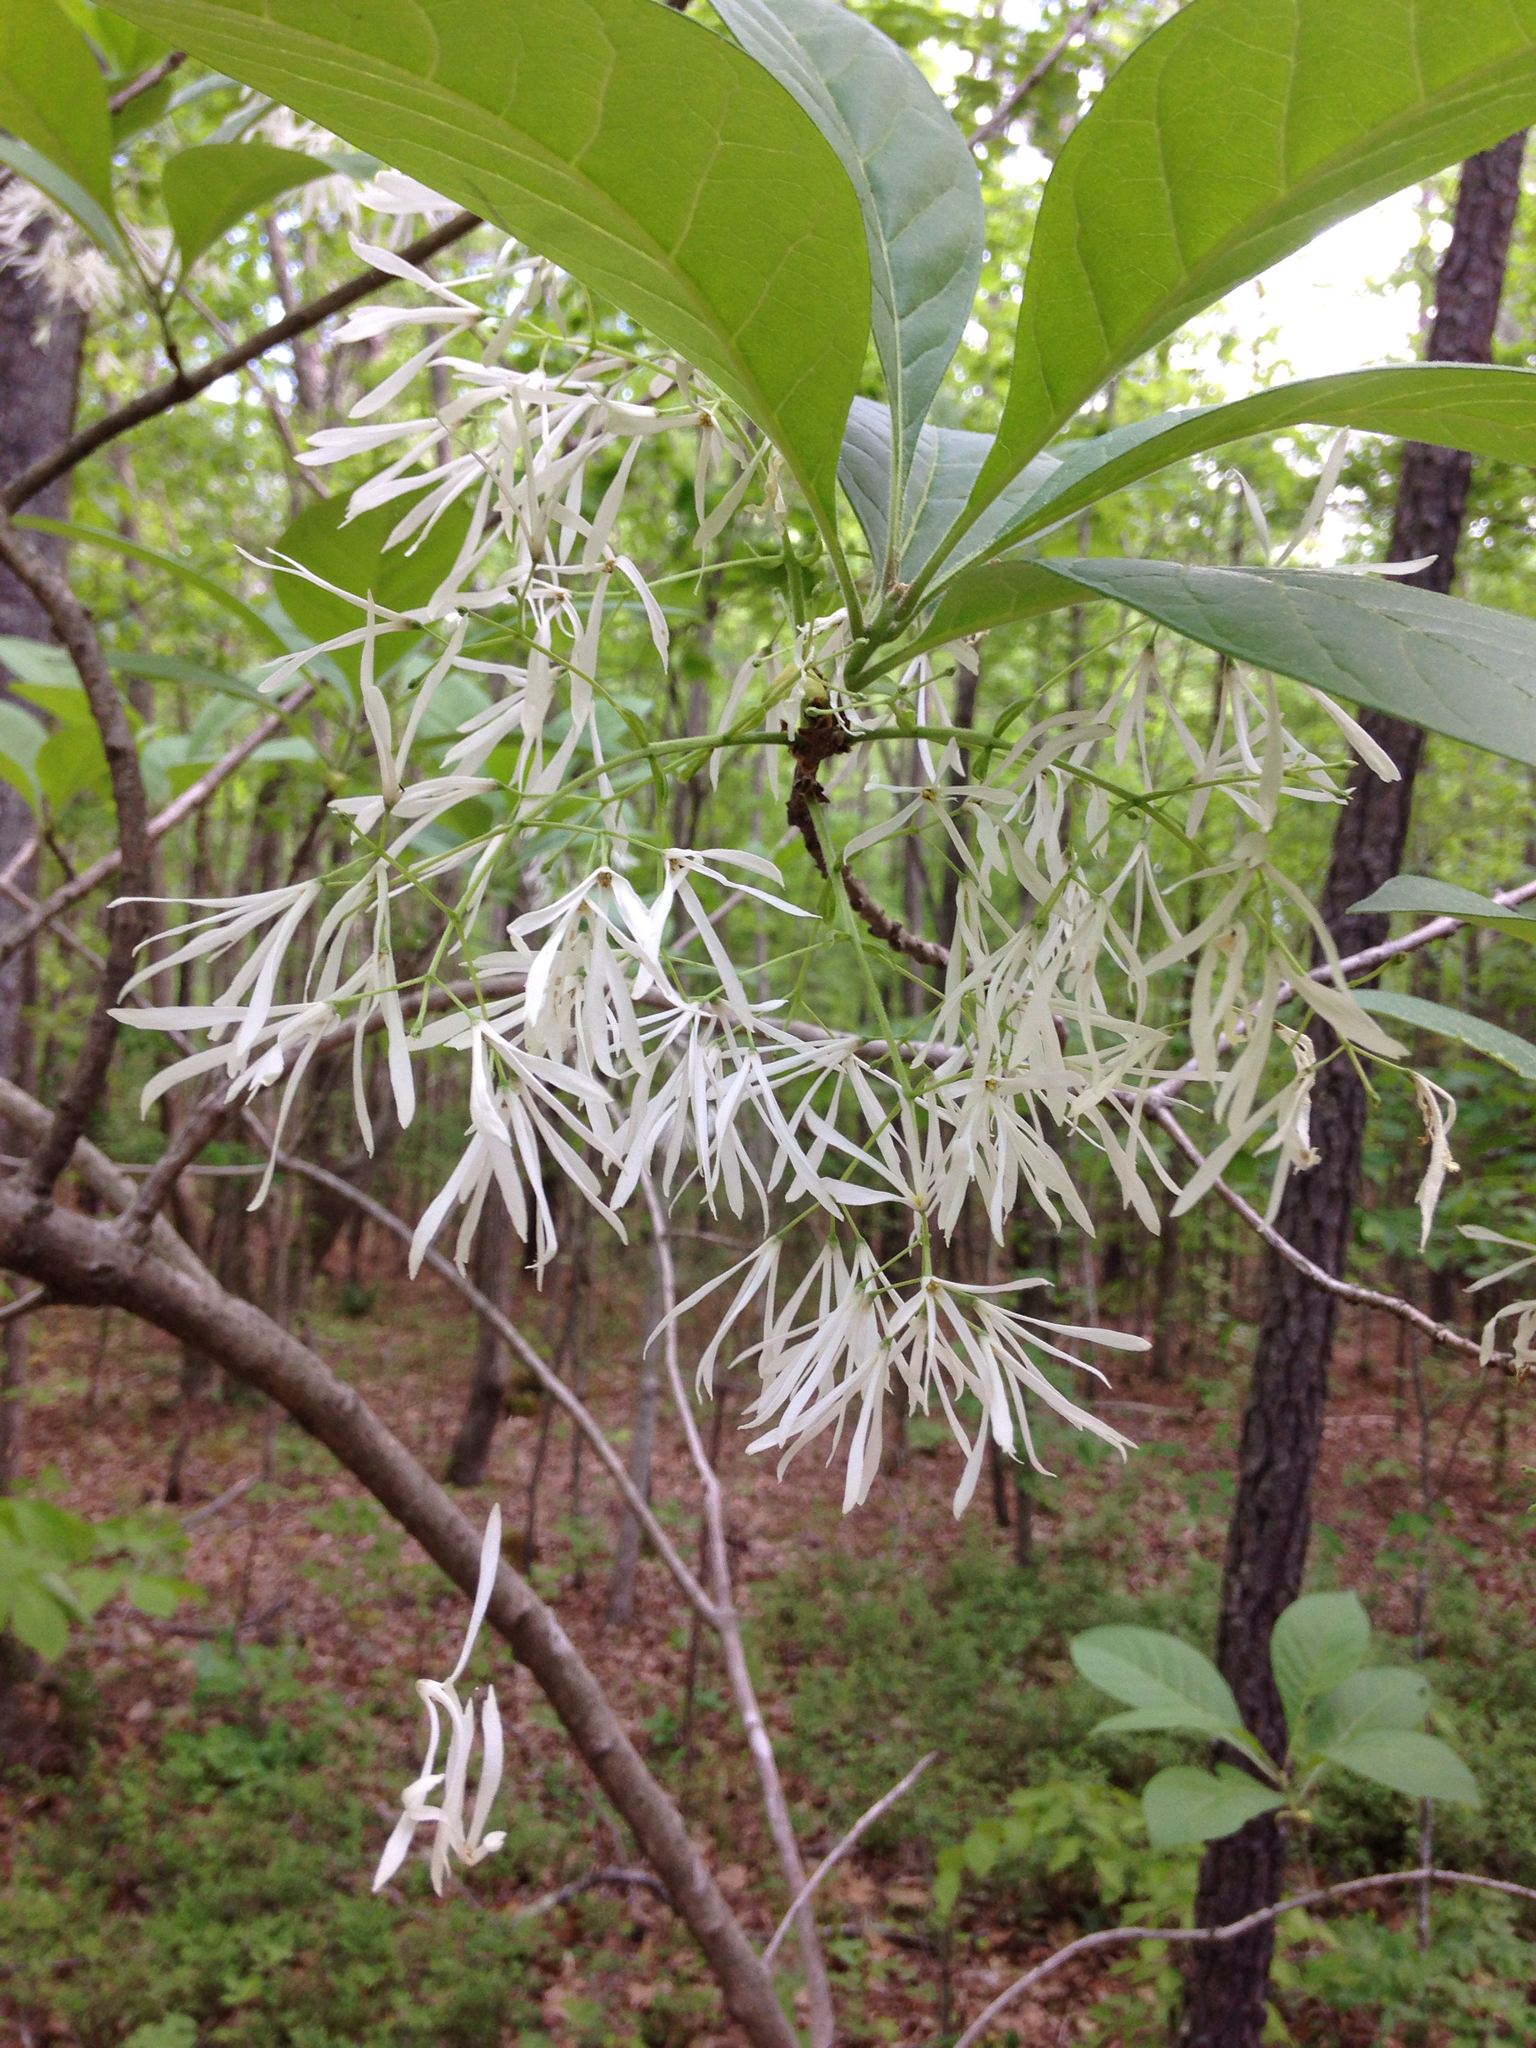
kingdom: Plantae
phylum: Tracheophyta
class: Magnoliopsida
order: Lamiales
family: Oleaceae
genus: Chionanthus
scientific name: Chionanthus virginicus
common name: American fringetree
